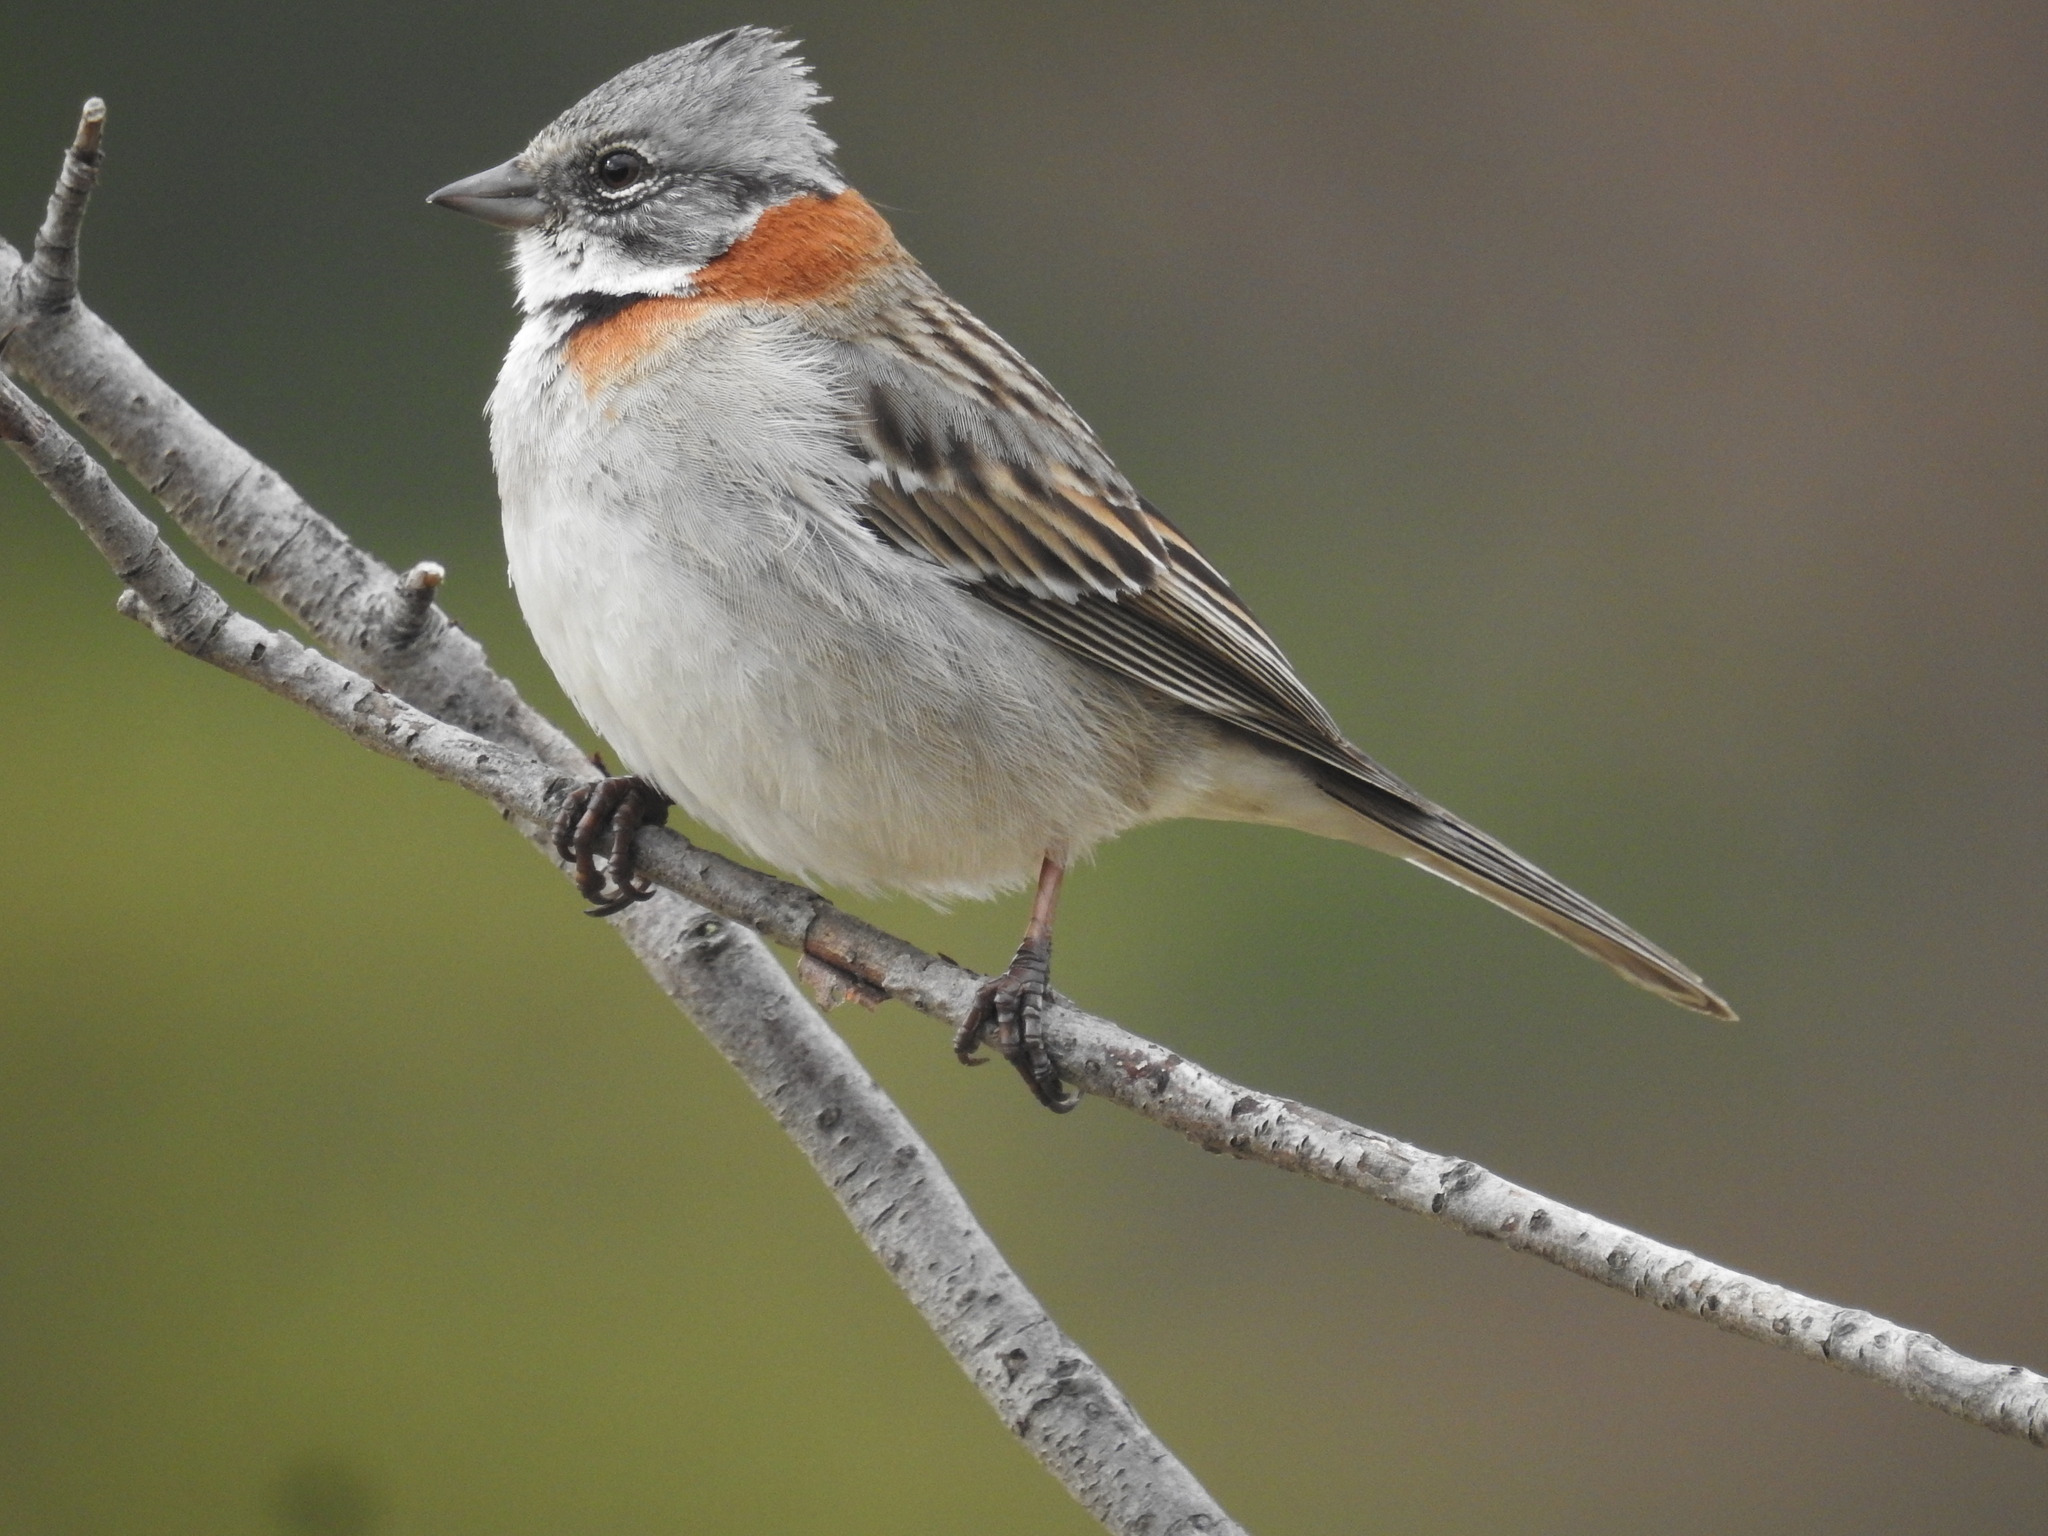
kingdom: Animalia
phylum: Chordata
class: Aves
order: Passeriformes
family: Passerellidae
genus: Zonotrichia
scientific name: Zonotrichia capensis
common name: Rufous-collared sparrow
